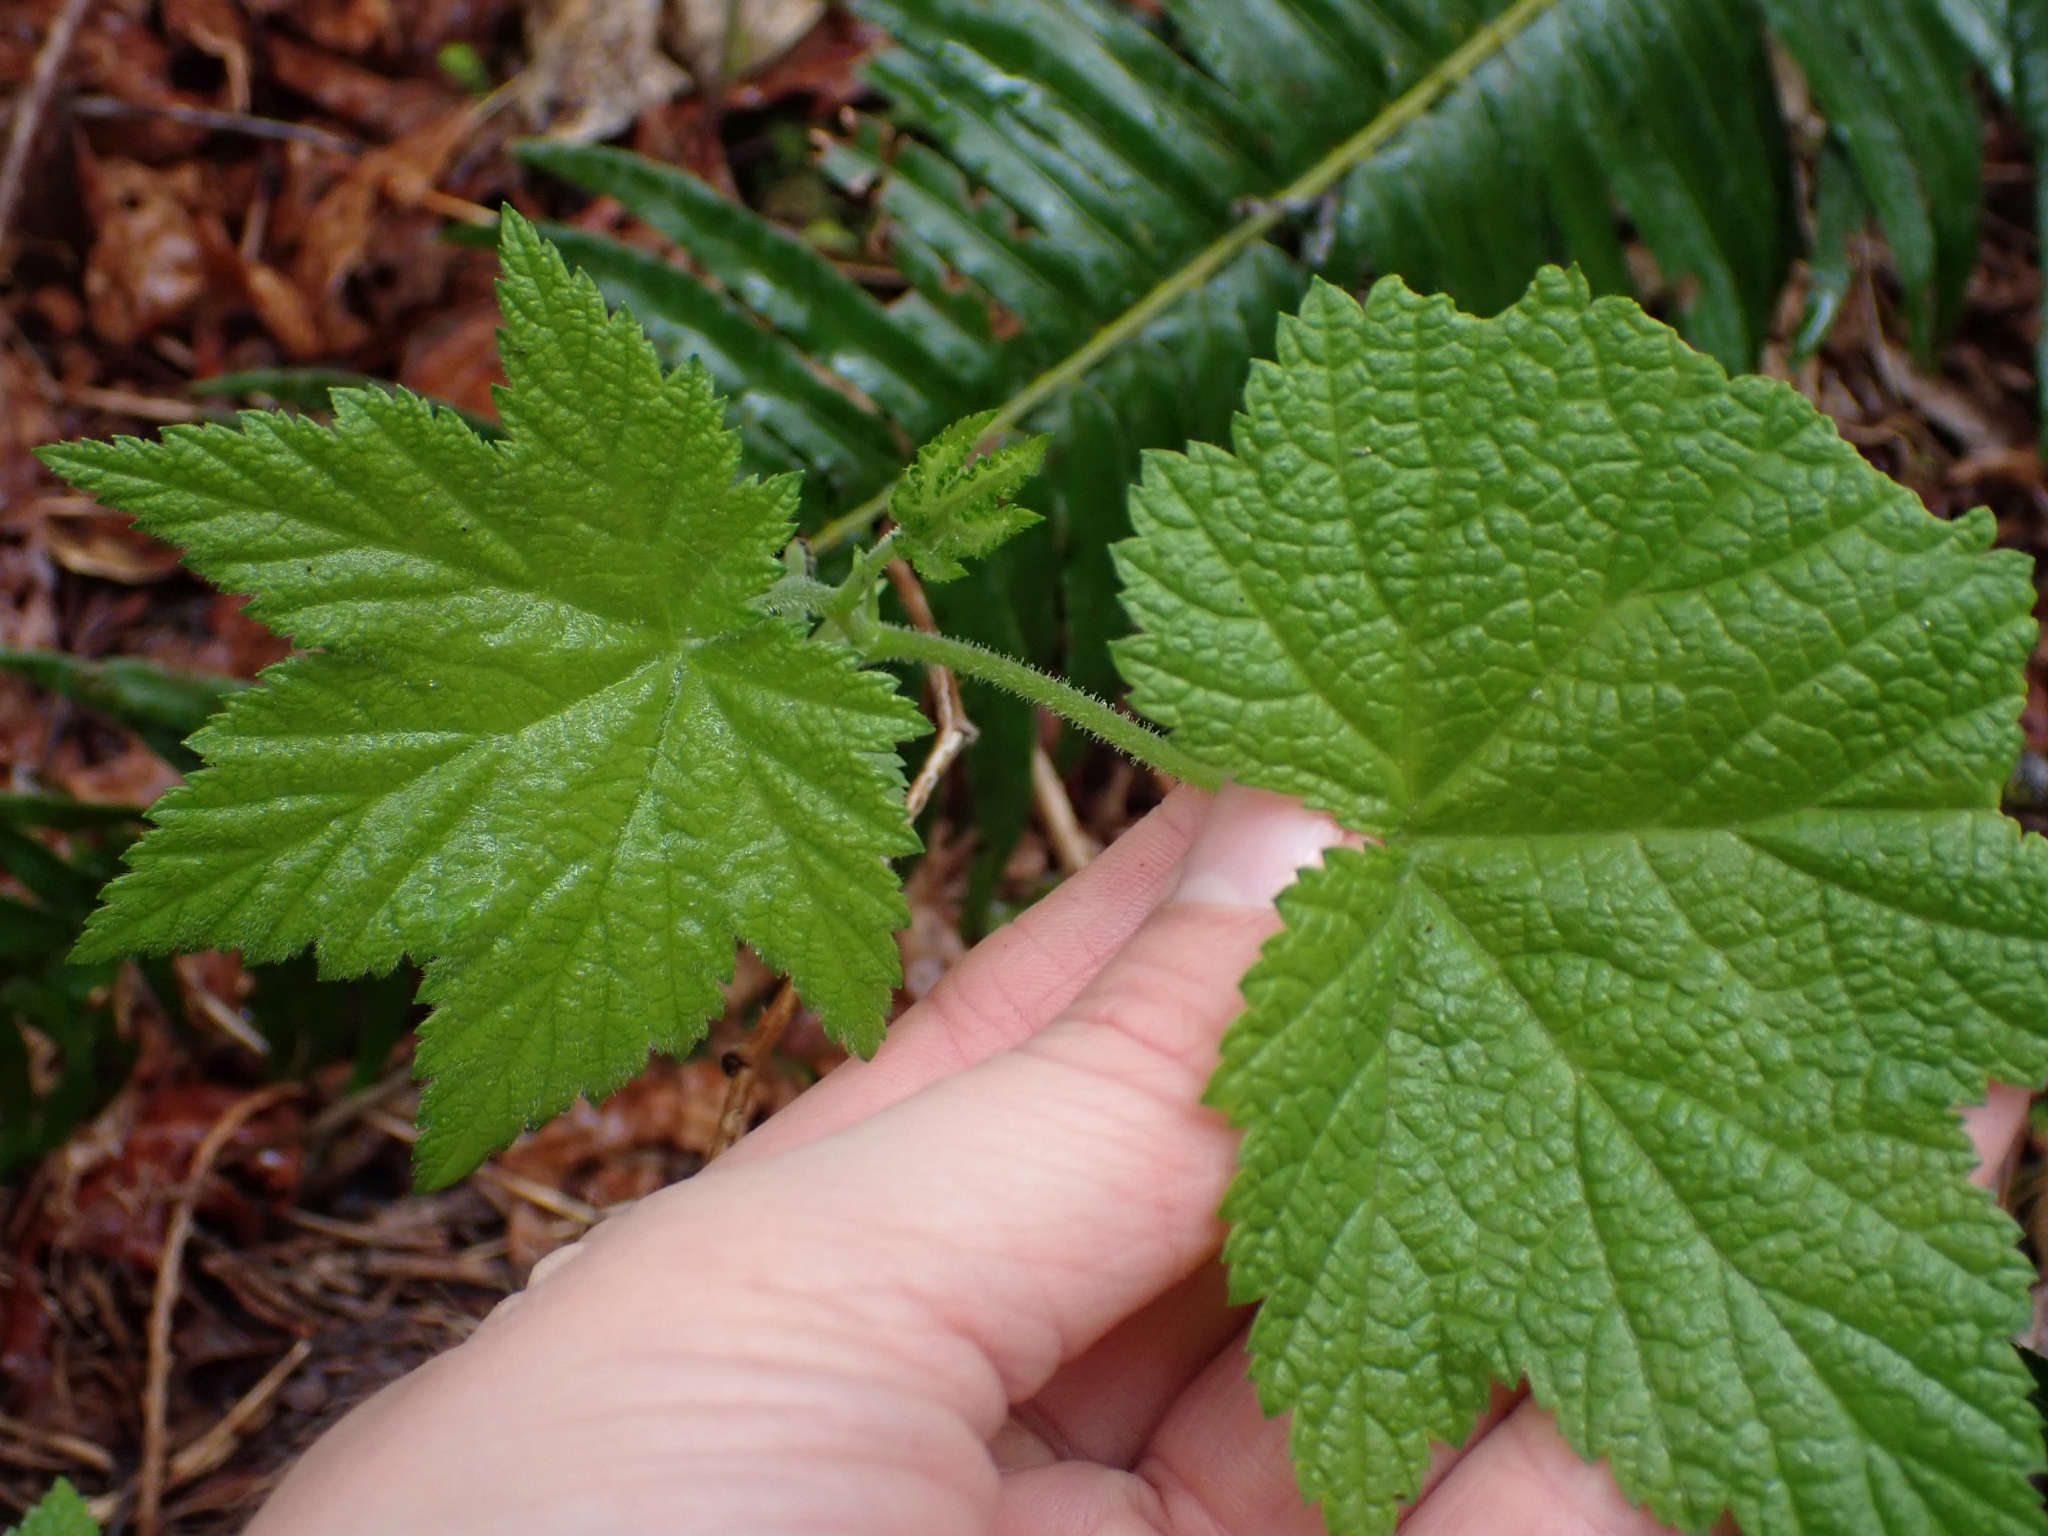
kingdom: Plantae
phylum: Tracheophyta
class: Magnoliopsida
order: Rosales
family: Rosaceae
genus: Rubus
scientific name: Rubus parviflorus
